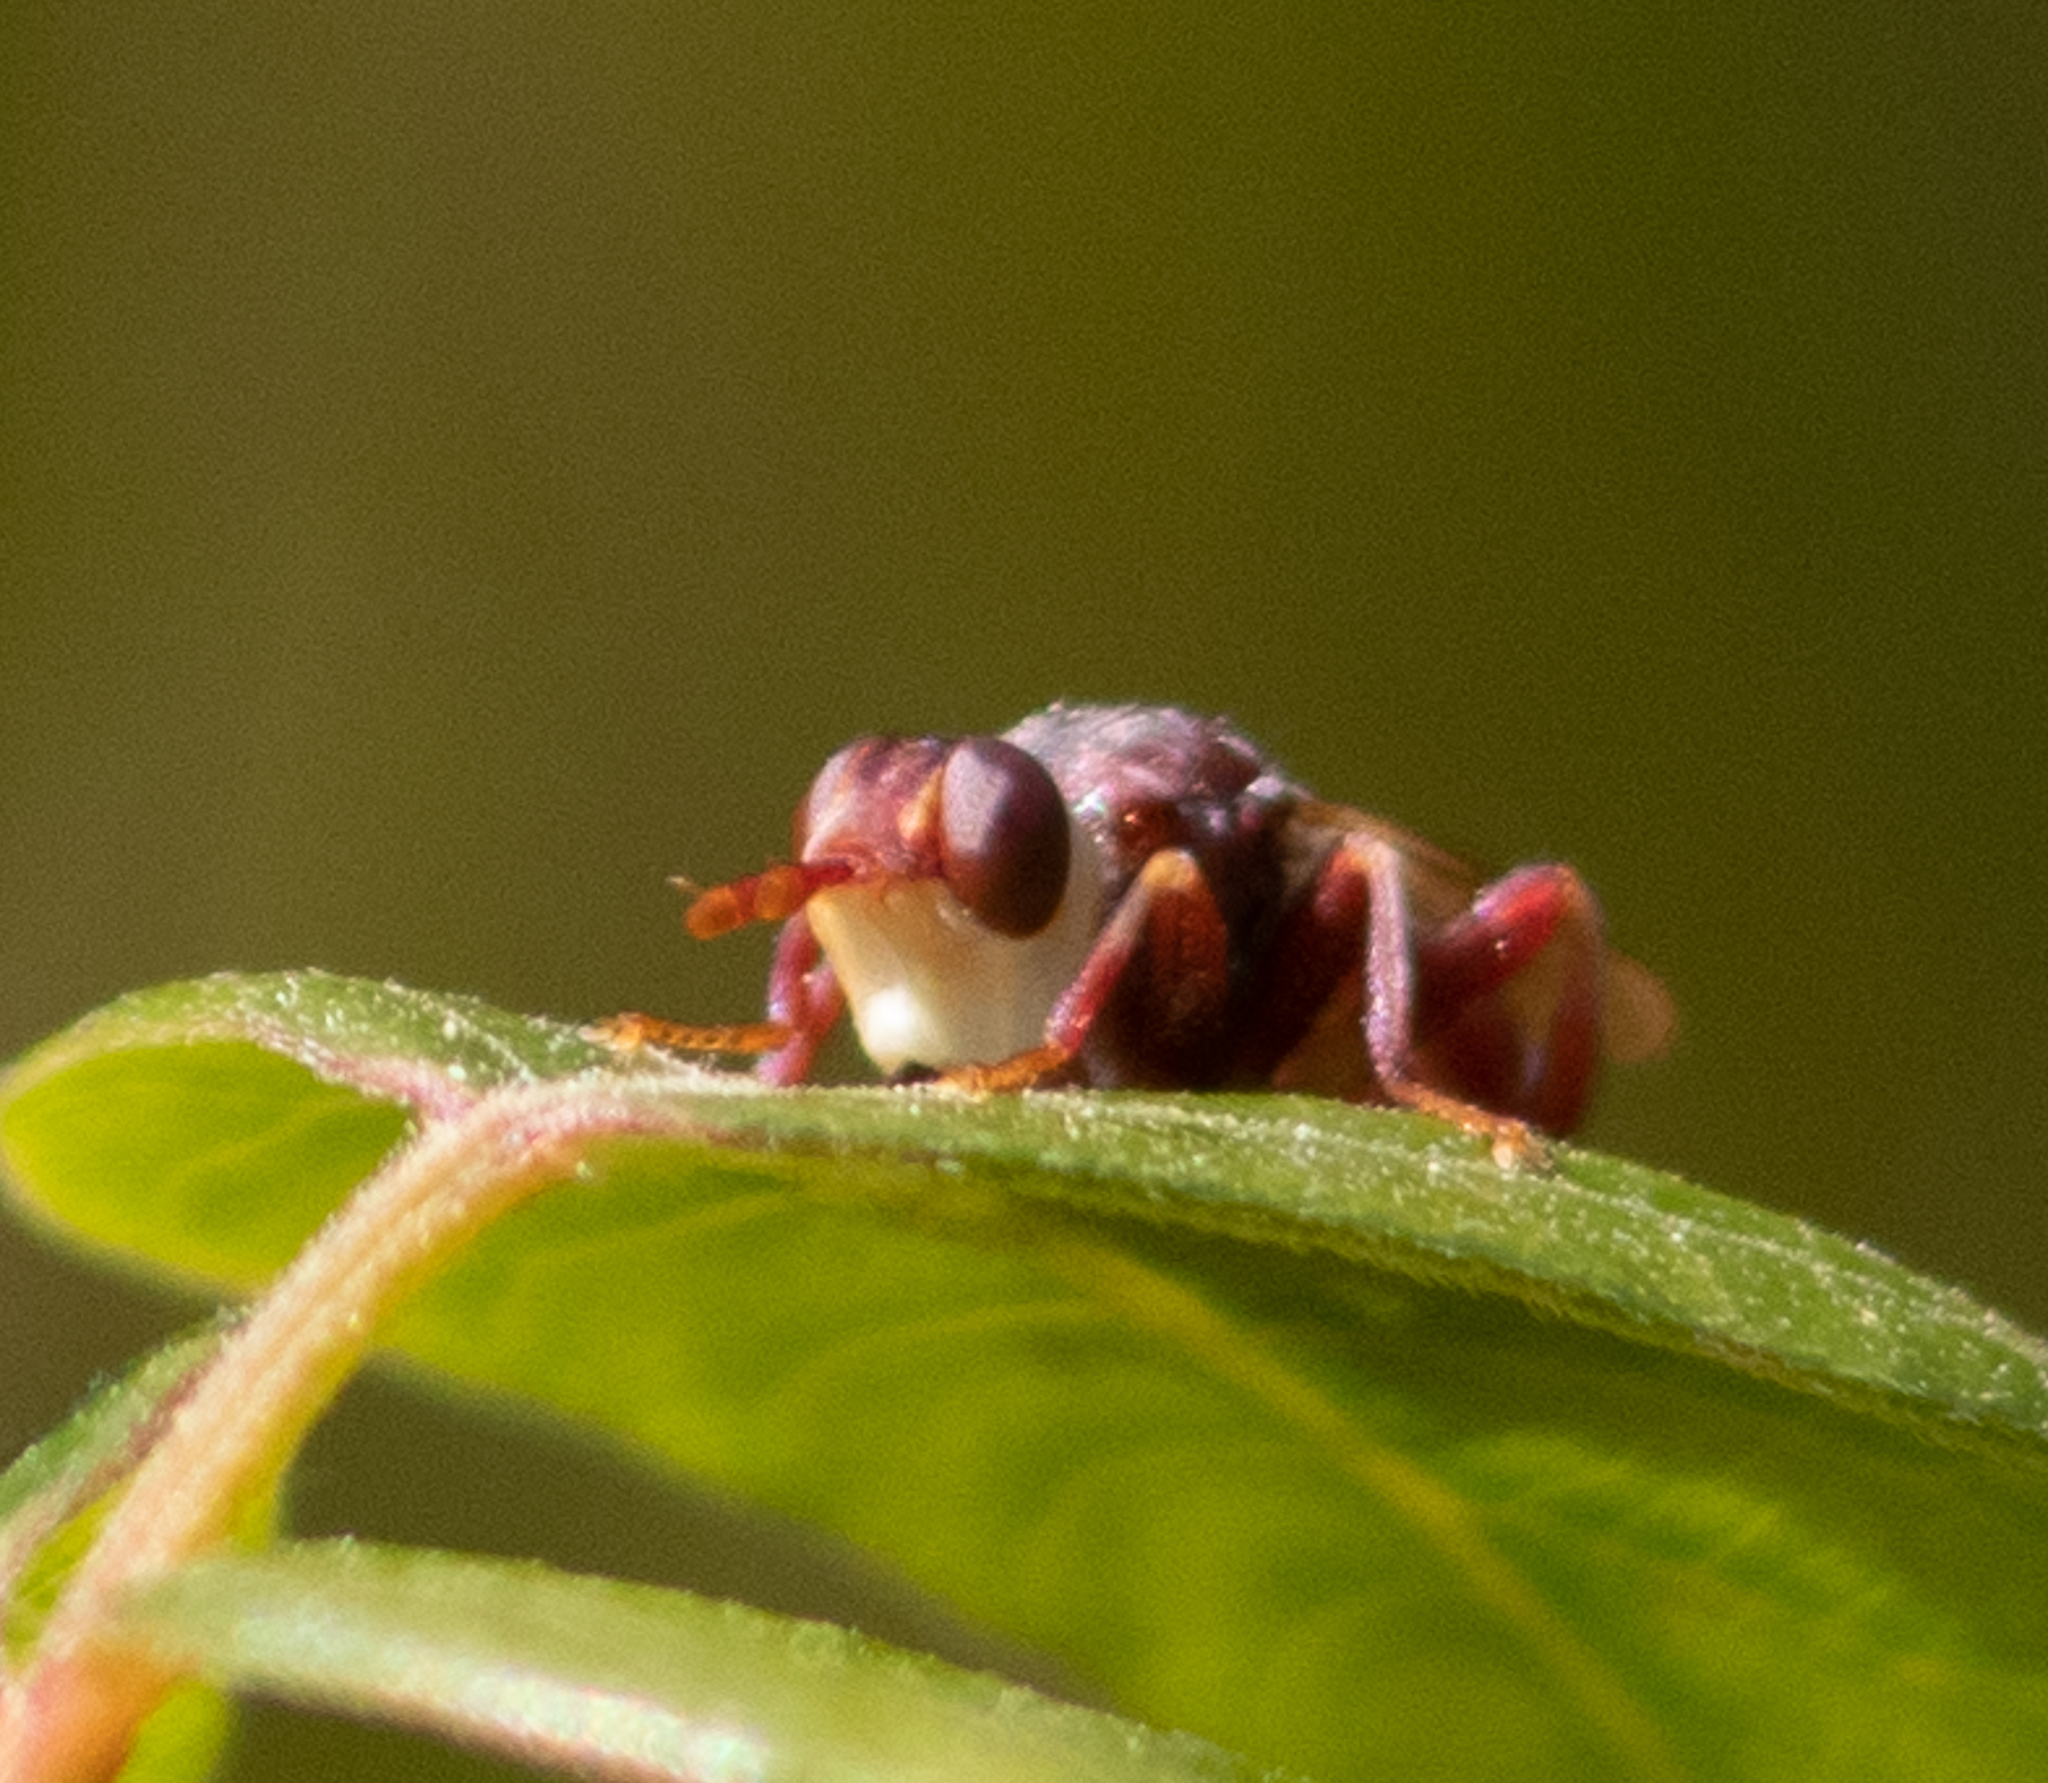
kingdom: Animalia
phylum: Arthropoda
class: Insecta
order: Diptera
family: Conopidae
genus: Myopa
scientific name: Myopa clausa
